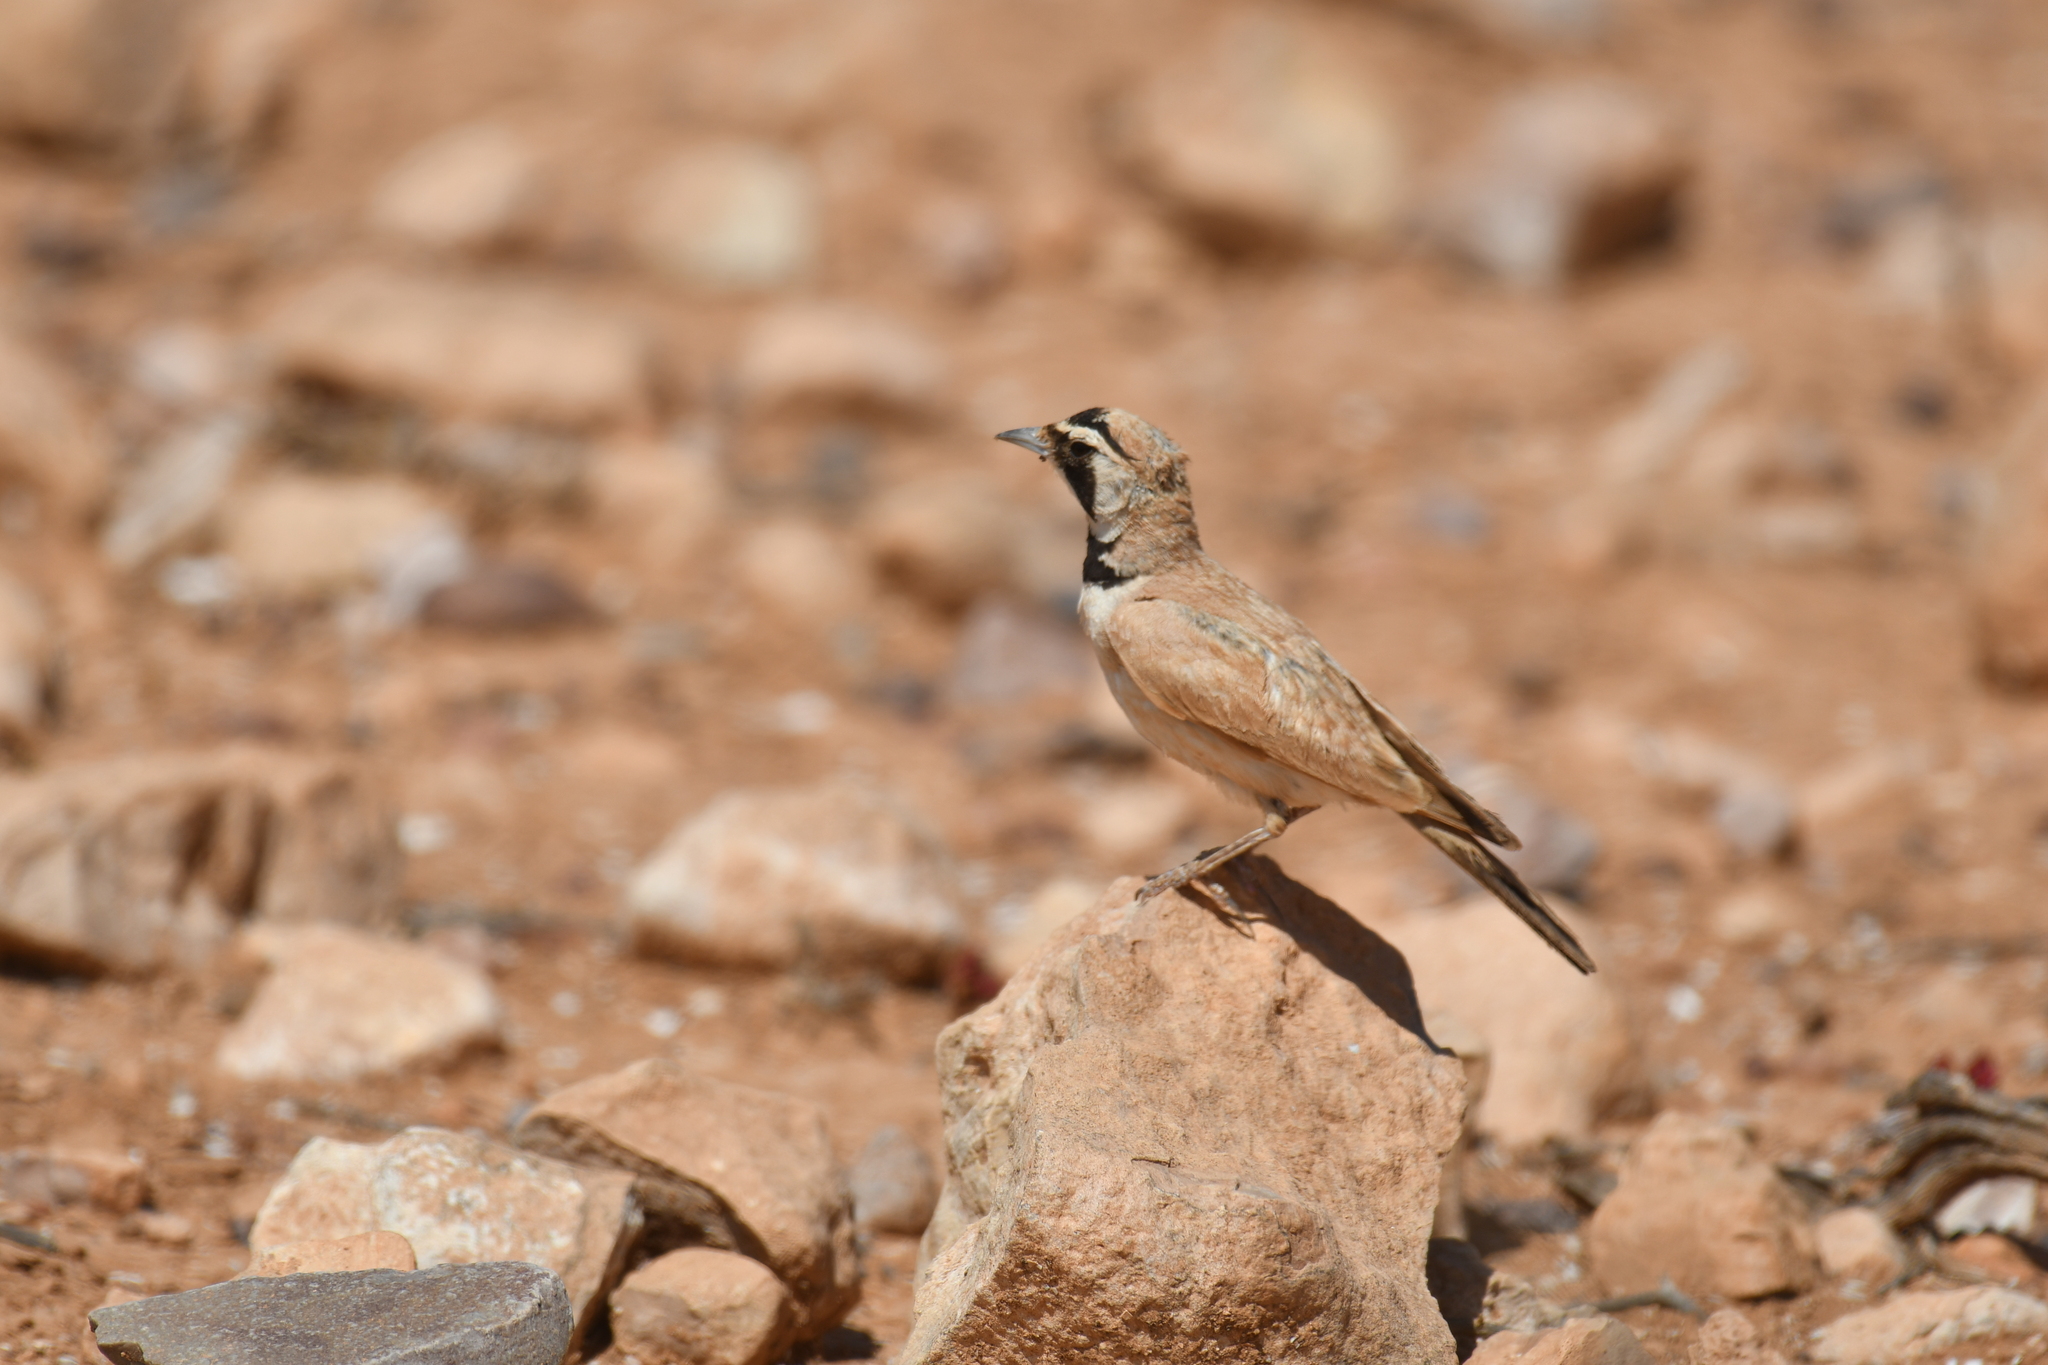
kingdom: Animalia
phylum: Chordata
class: Aves
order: Passeriformes
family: Alaudidae
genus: Eremophila
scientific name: Eremophila bilopha
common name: Temminck's lark
